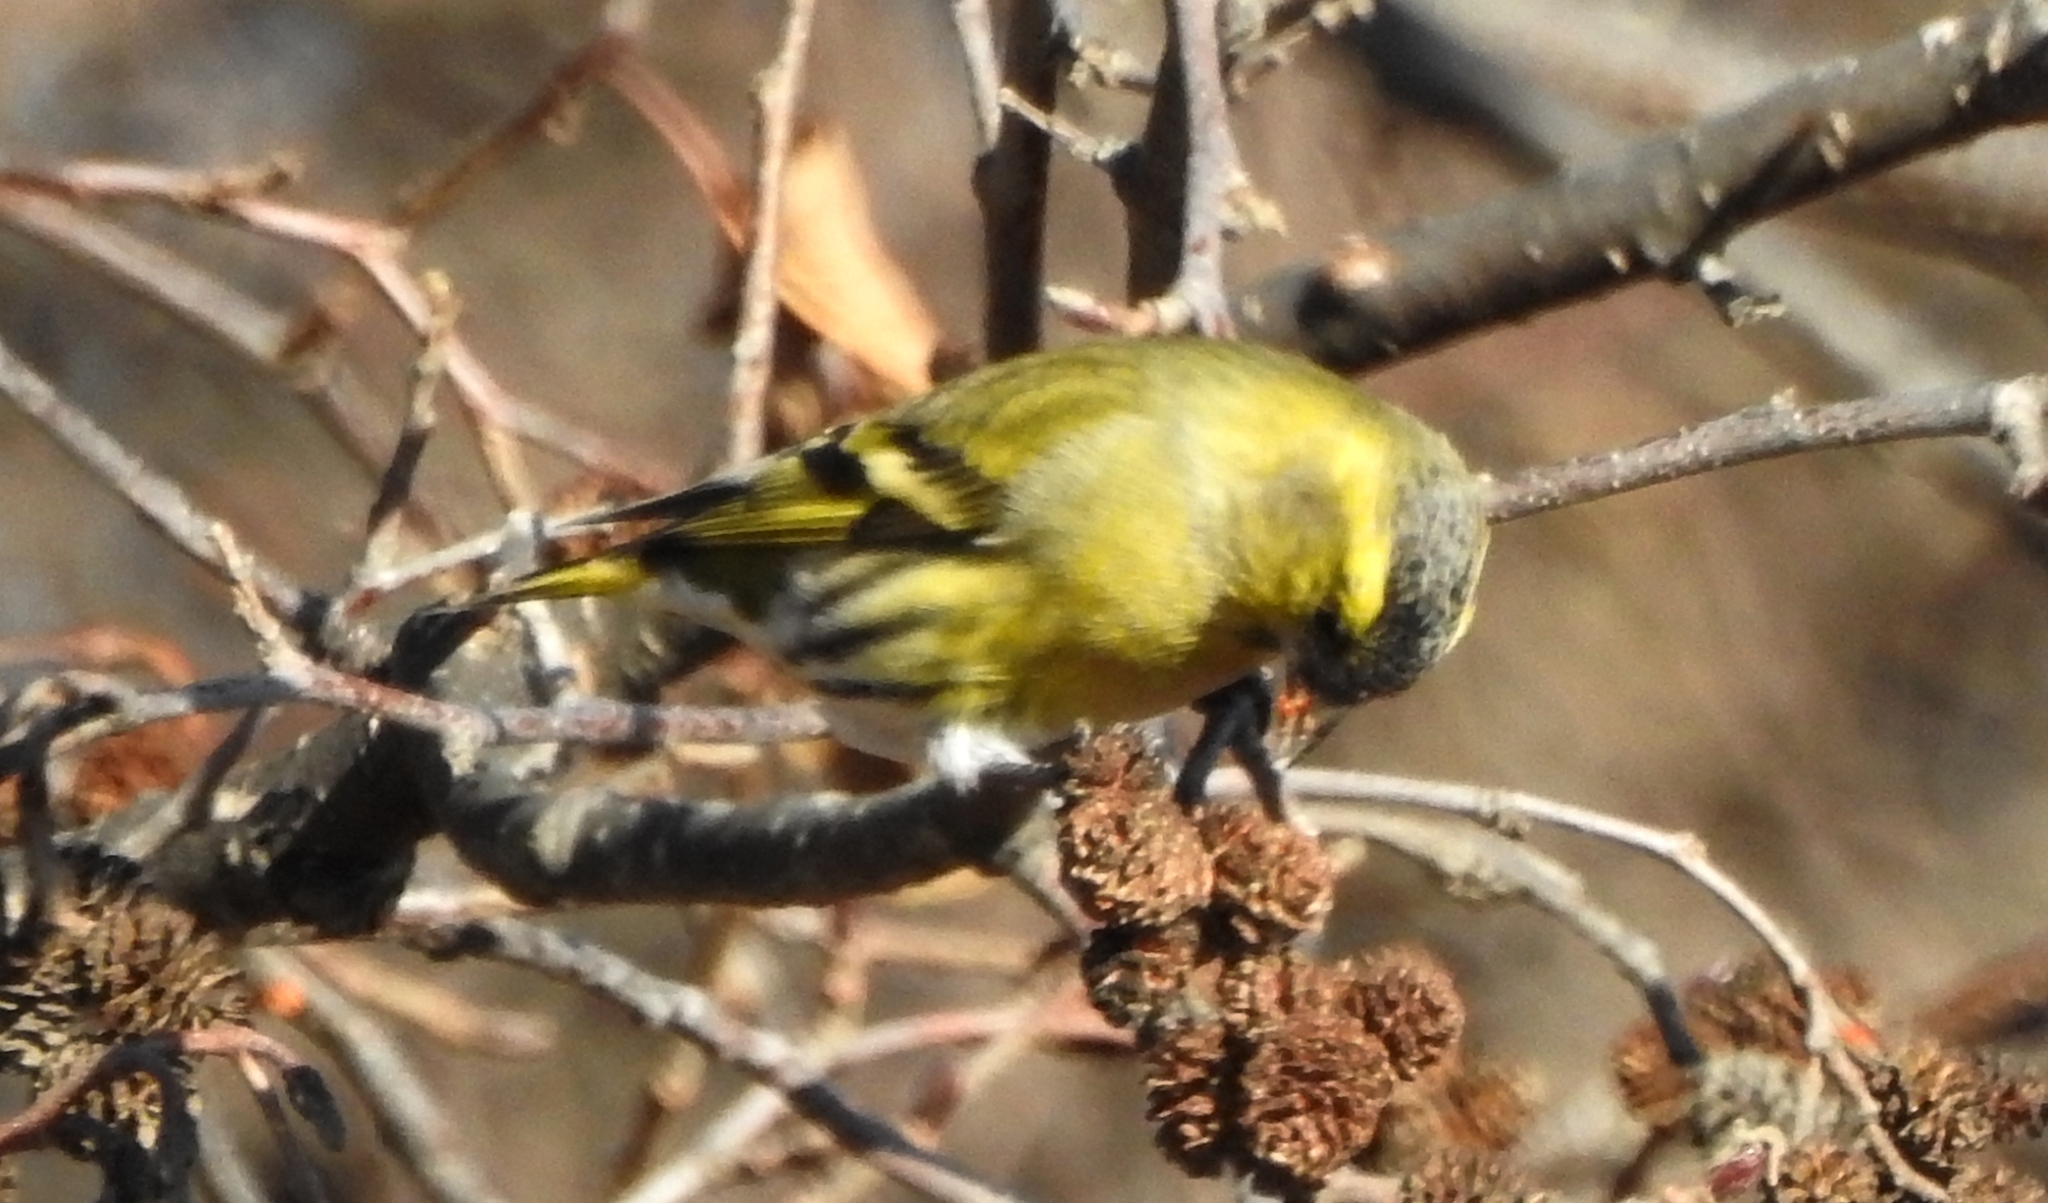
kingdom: Animalia
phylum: Chordata
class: Aves
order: Passeriformes
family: Fringillidae
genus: Spinus
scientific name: Spinus spinus
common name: Eurasian siskin
